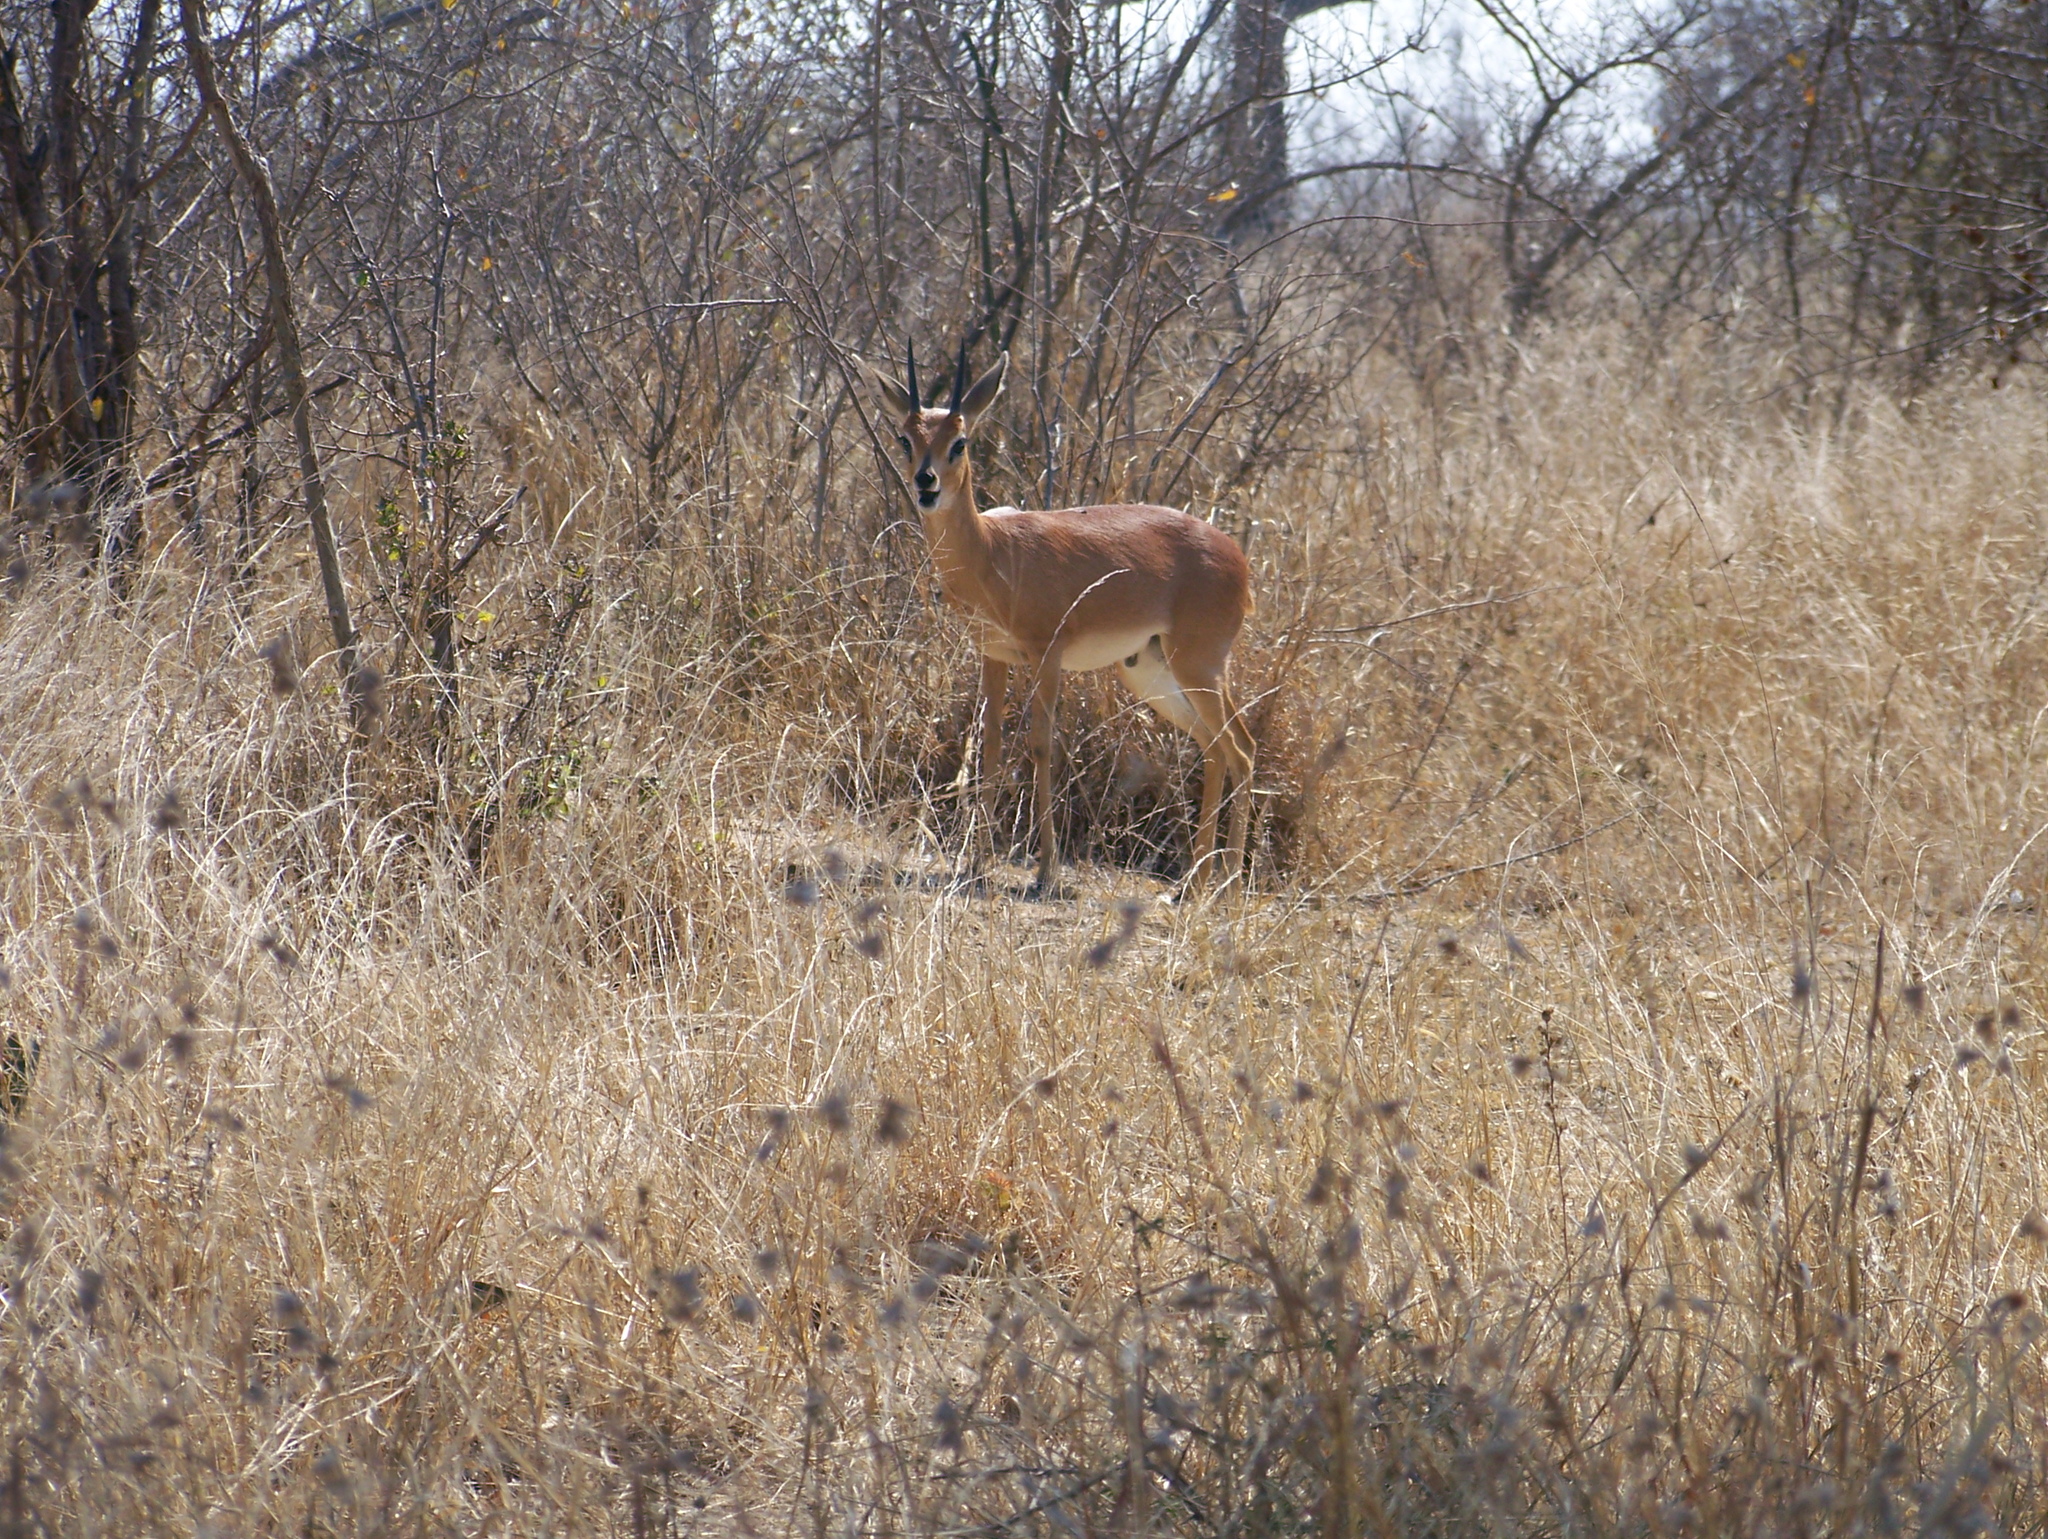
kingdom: Animalia
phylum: Chordata
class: Mammalia
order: Artiodactyla
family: Bovidae
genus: Raphicerus
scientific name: Raphicerus campestris
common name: Steenbok
